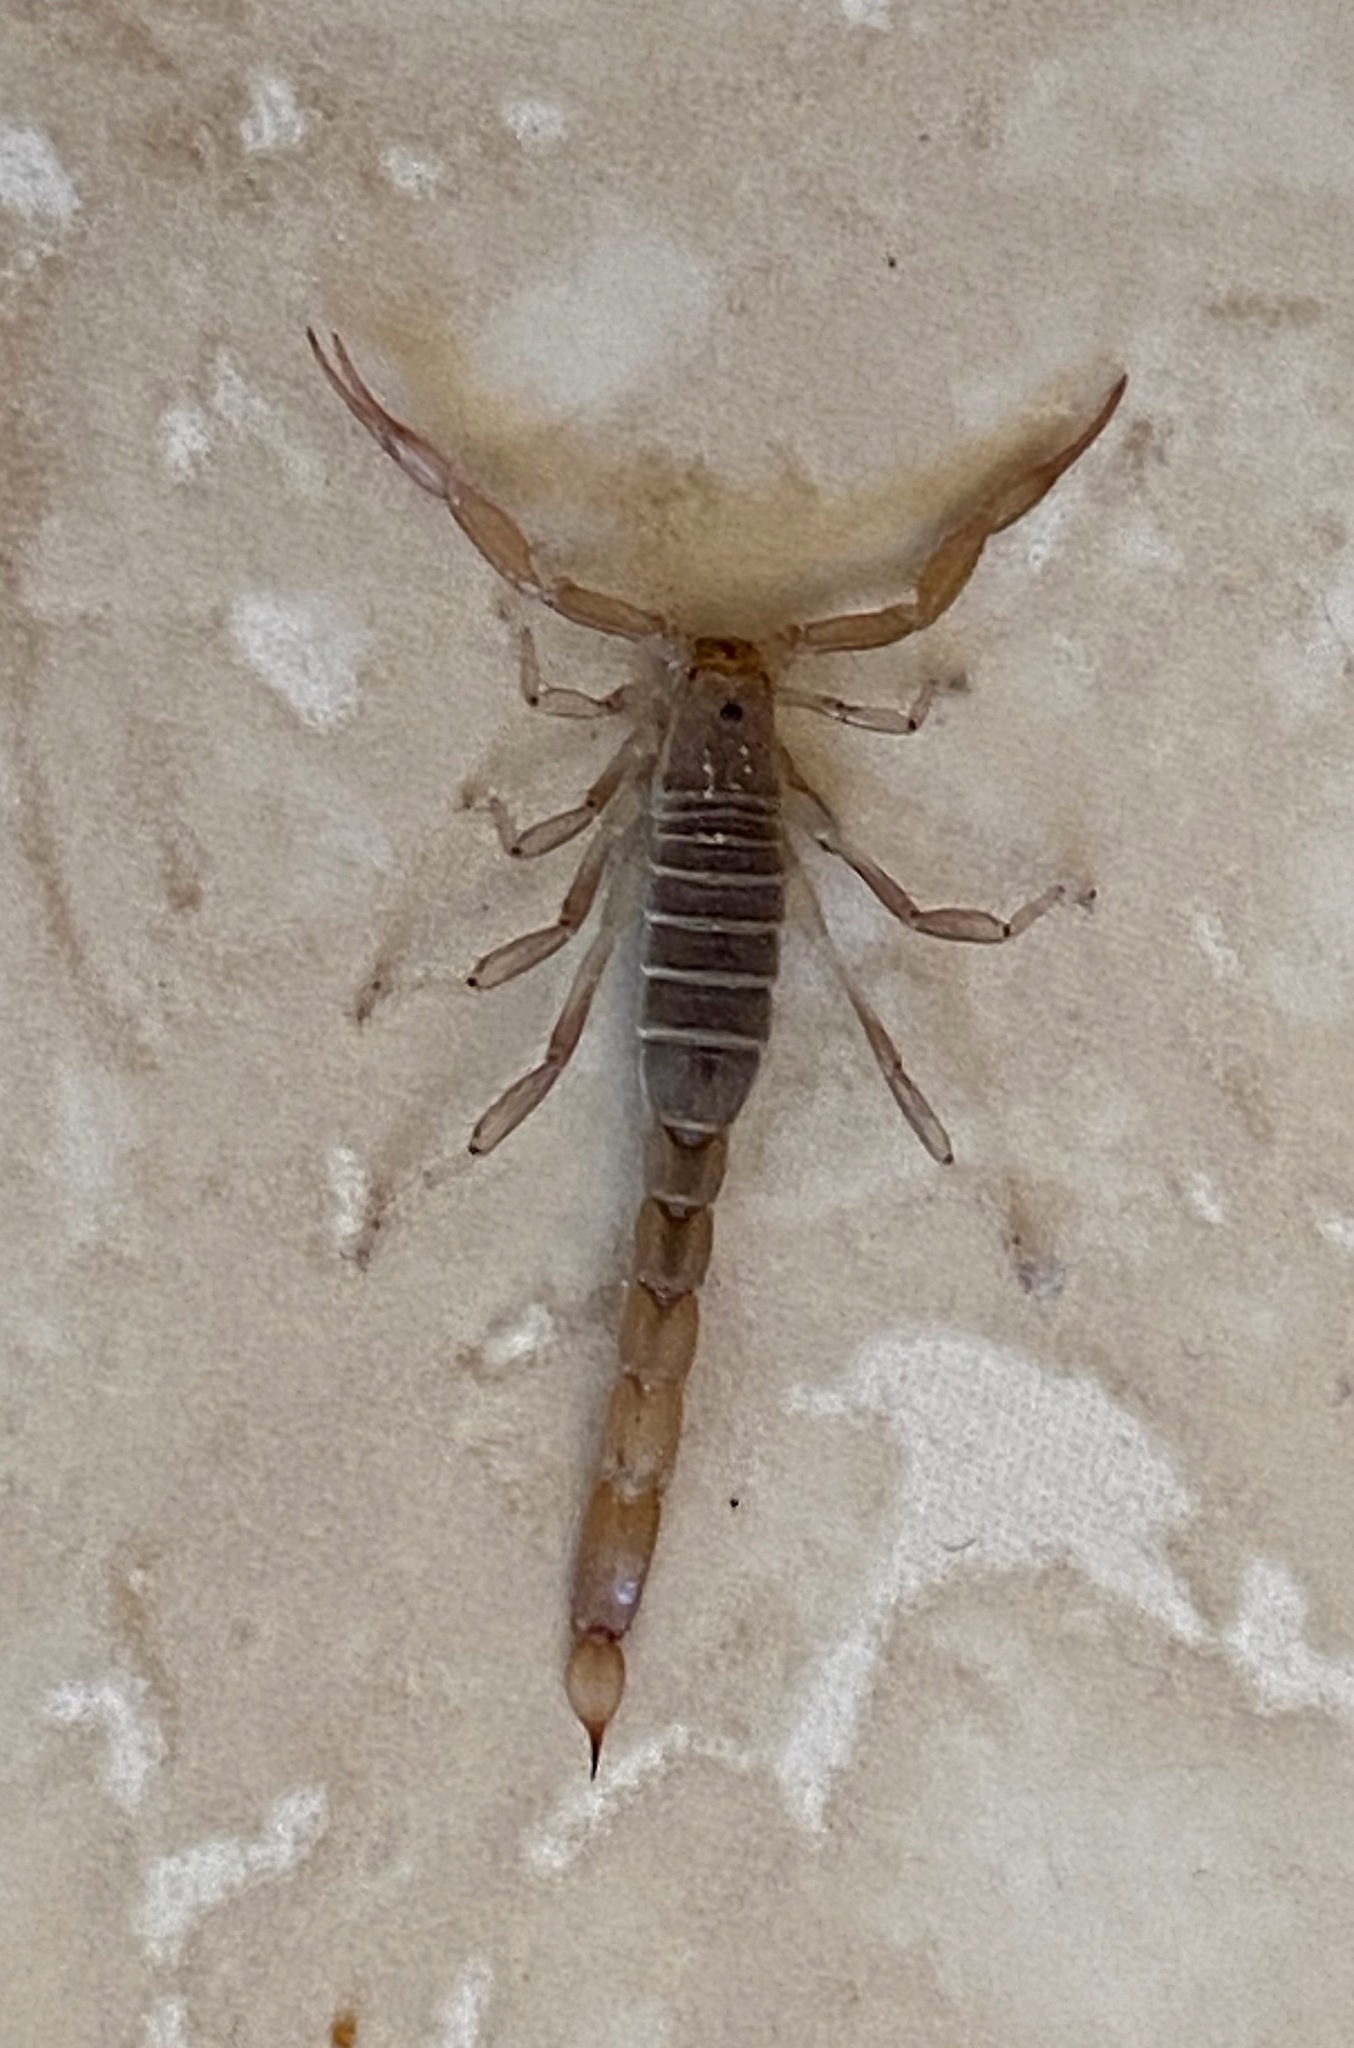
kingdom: Animalia
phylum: Arthropoda
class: Arachnida
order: Scorpiones
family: Vaejovidae
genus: Paravaejovis
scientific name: Paravaejovis waeringi
